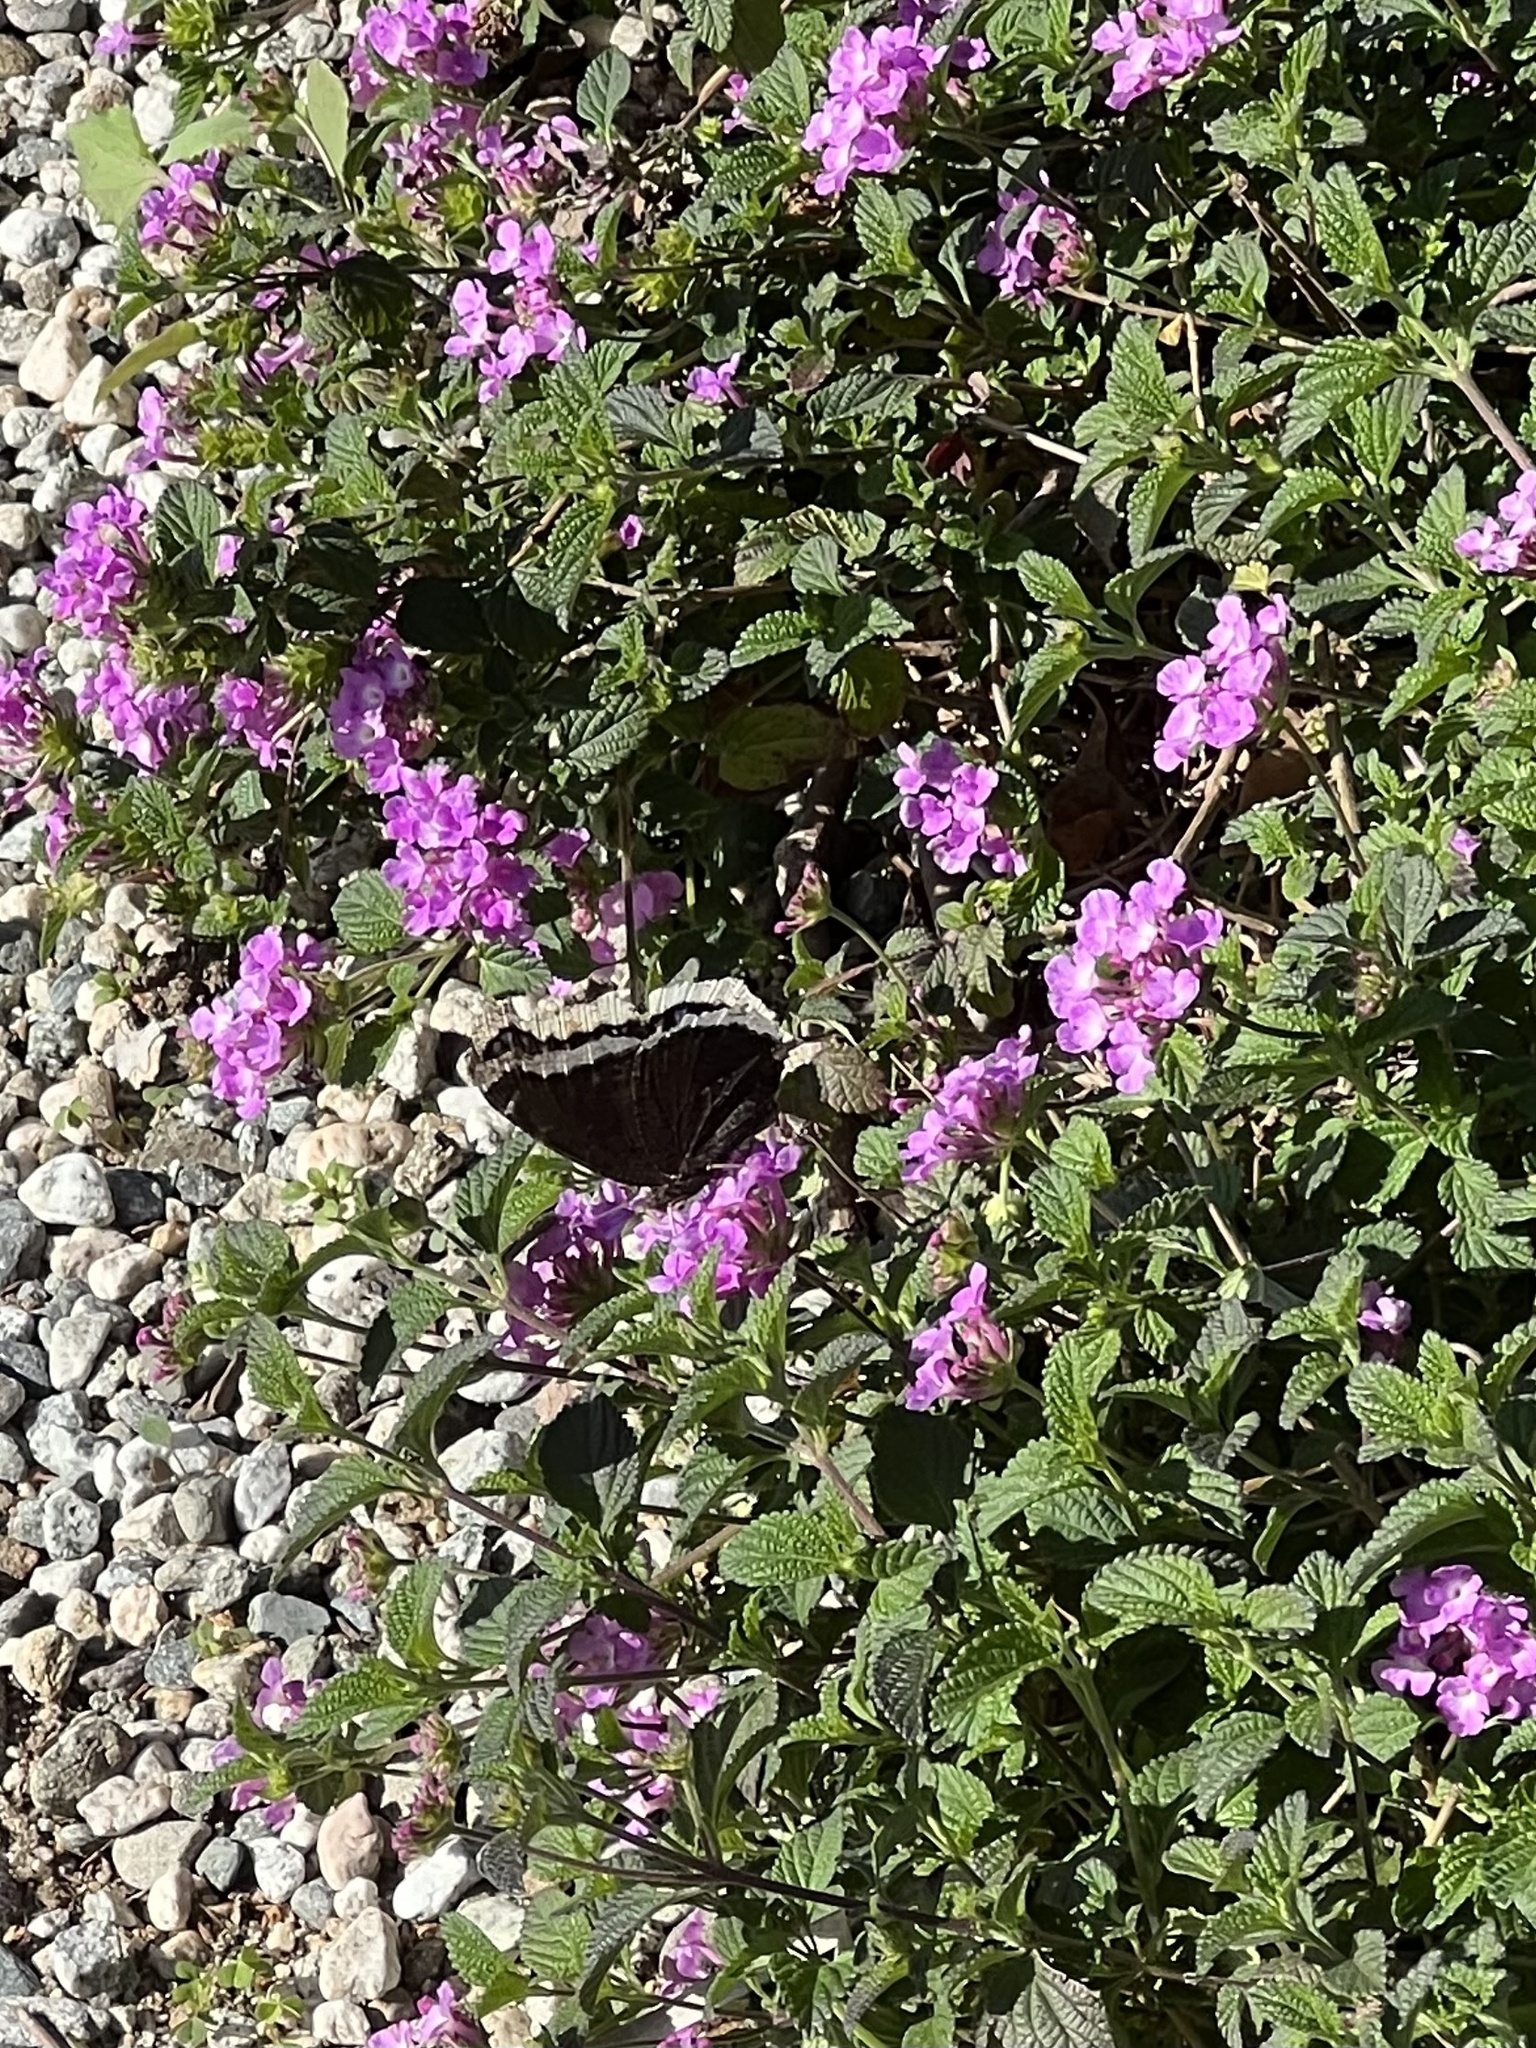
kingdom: Animalia
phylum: Arthropoda
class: Insecta
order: Lepidoptera
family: Nymphalidae
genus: Nymphalis
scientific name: Nymphalis antiopa
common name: Camberwell beauty
